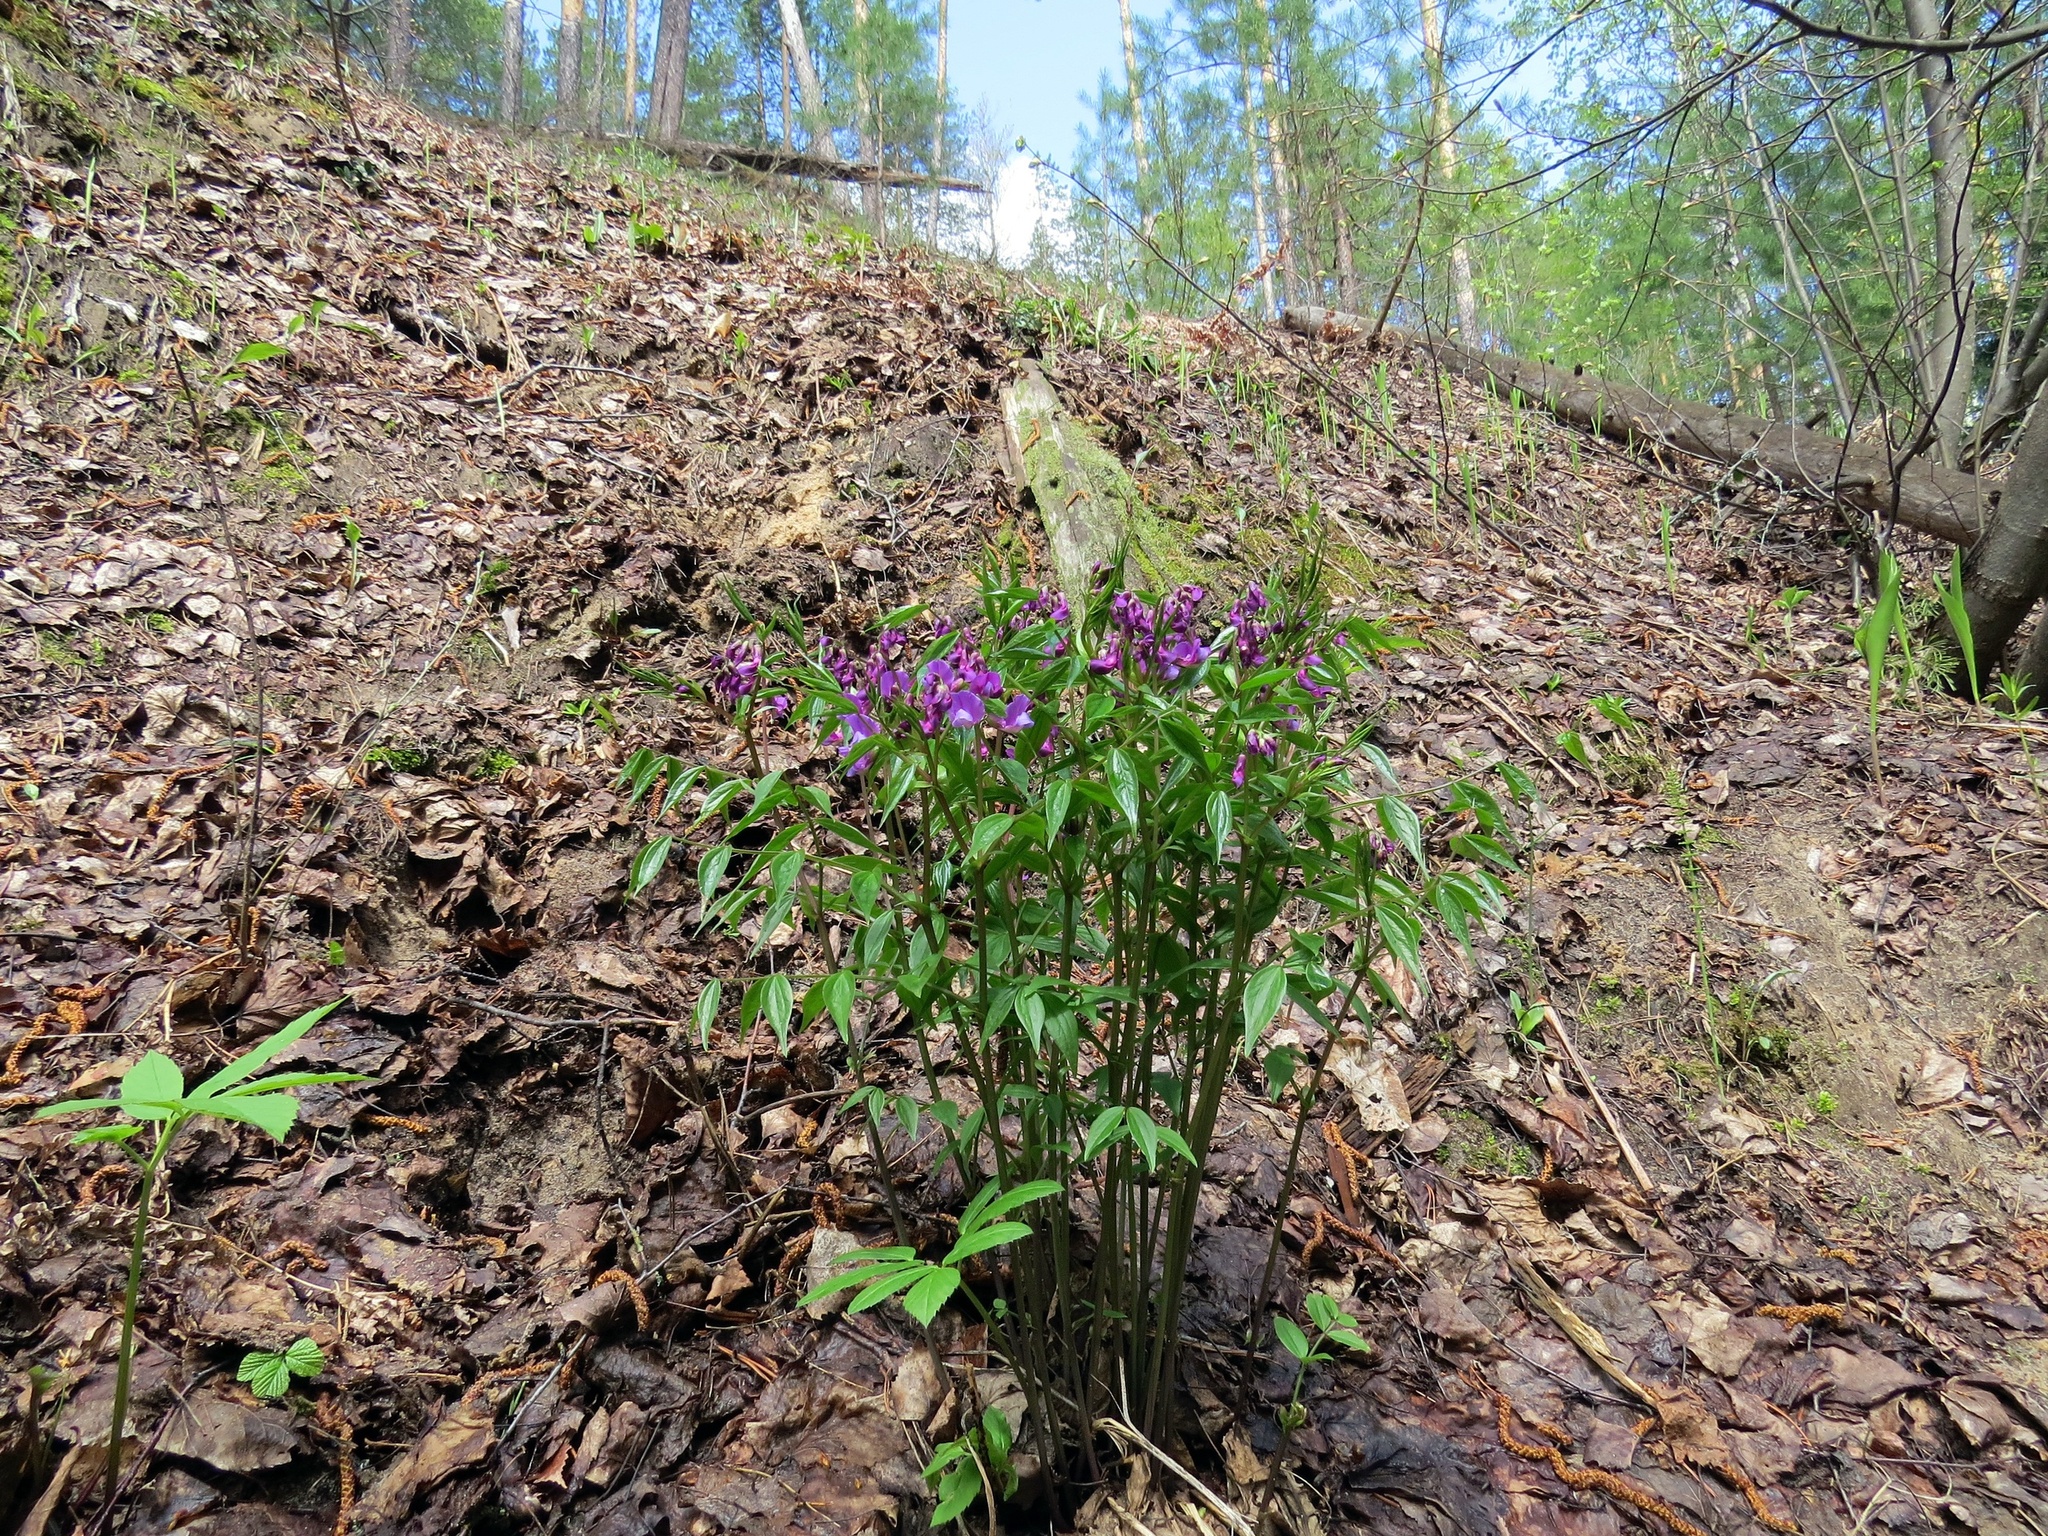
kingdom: Plantae
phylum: Tracheophyta
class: Magnoliopsida
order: Fabales
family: Fabaceae
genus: Lathyrus
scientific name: Lathyrus vernus
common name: Spring pea
